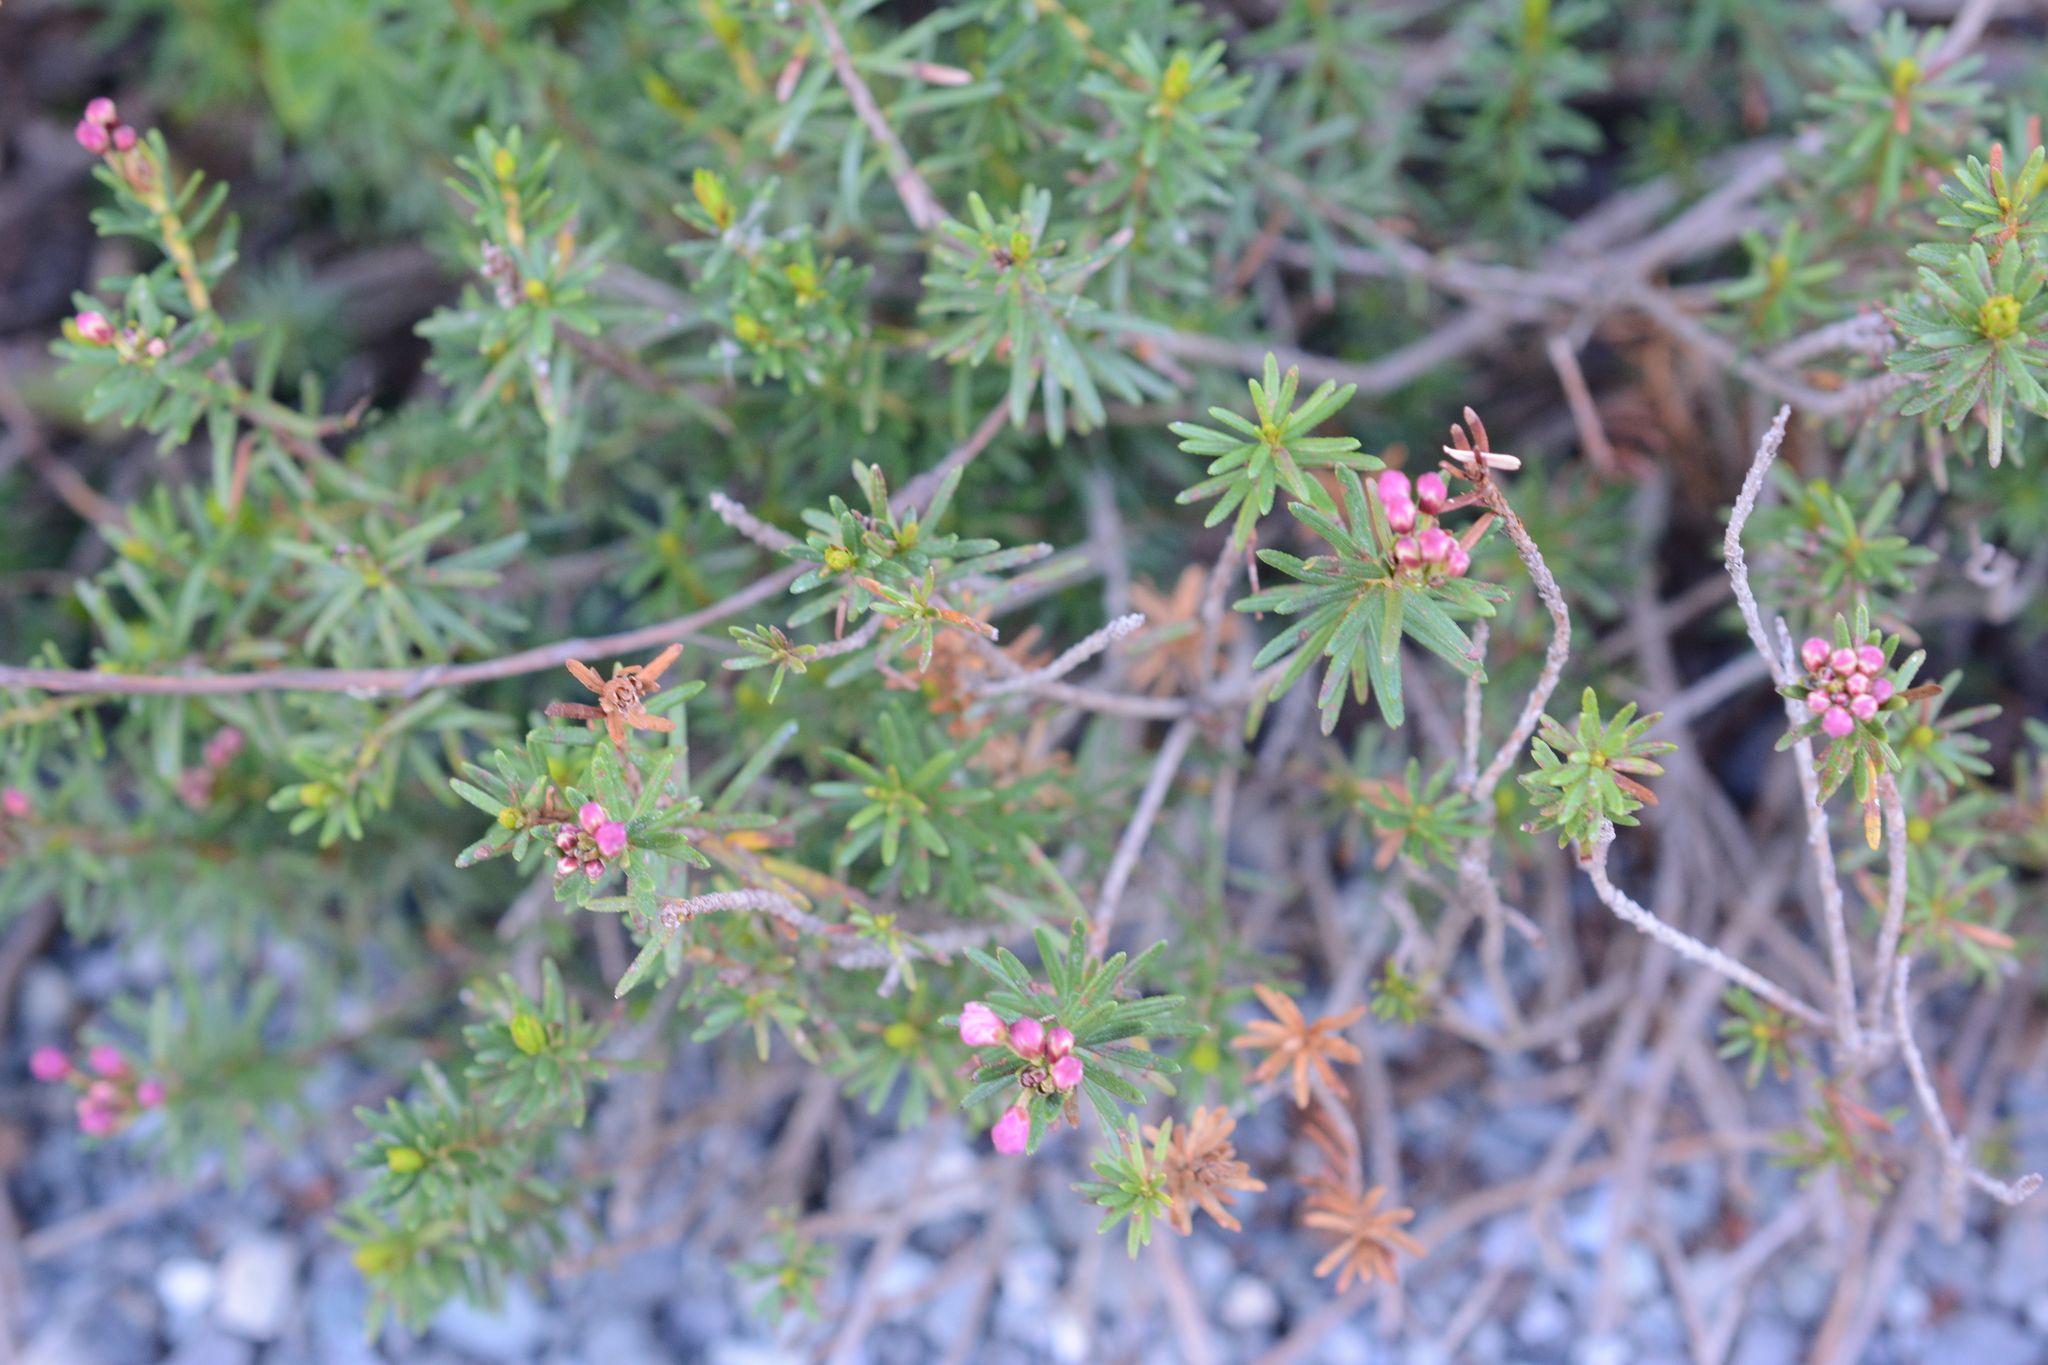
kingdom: Plantae
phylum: Tracheophyta
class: Magnoliopsida
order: Ericales
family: Ericaceae
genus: Phyllodoce
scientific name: Phyllodoce empetriformis
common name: Pink mountain heather
